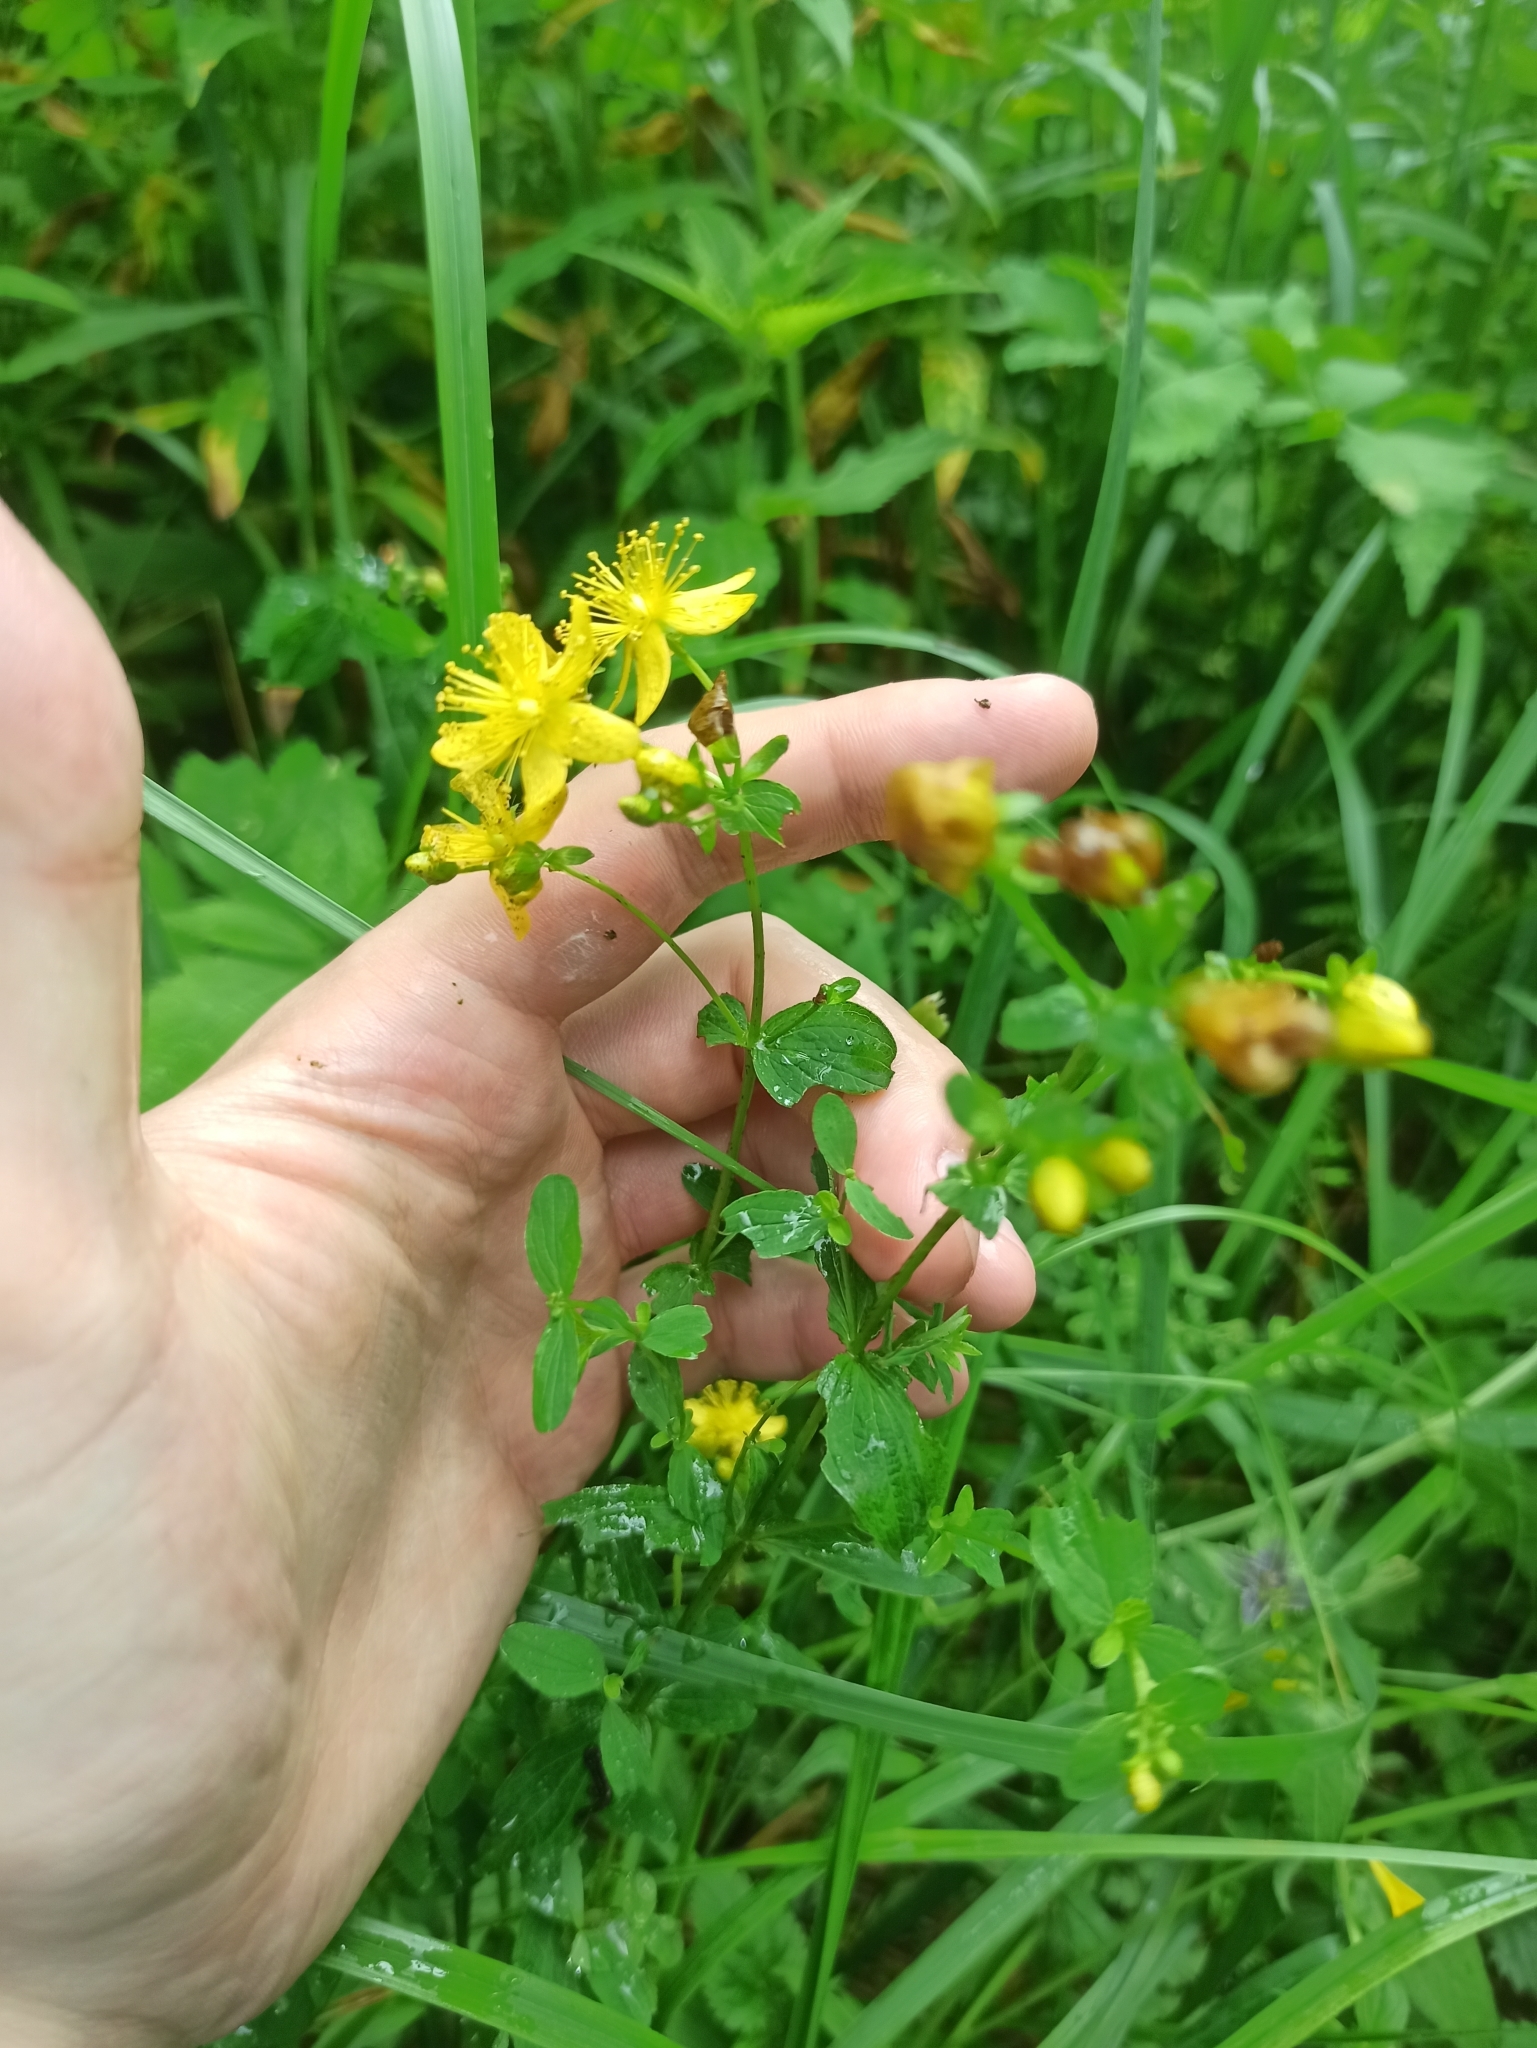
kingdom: Plantae
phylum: Tracheophyta
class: Magnoliopsida
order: Malpighiales
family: Hypericaceae
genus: Hypericum
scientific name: Hypericum maculatum
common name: Imperforate st. john's-wort
